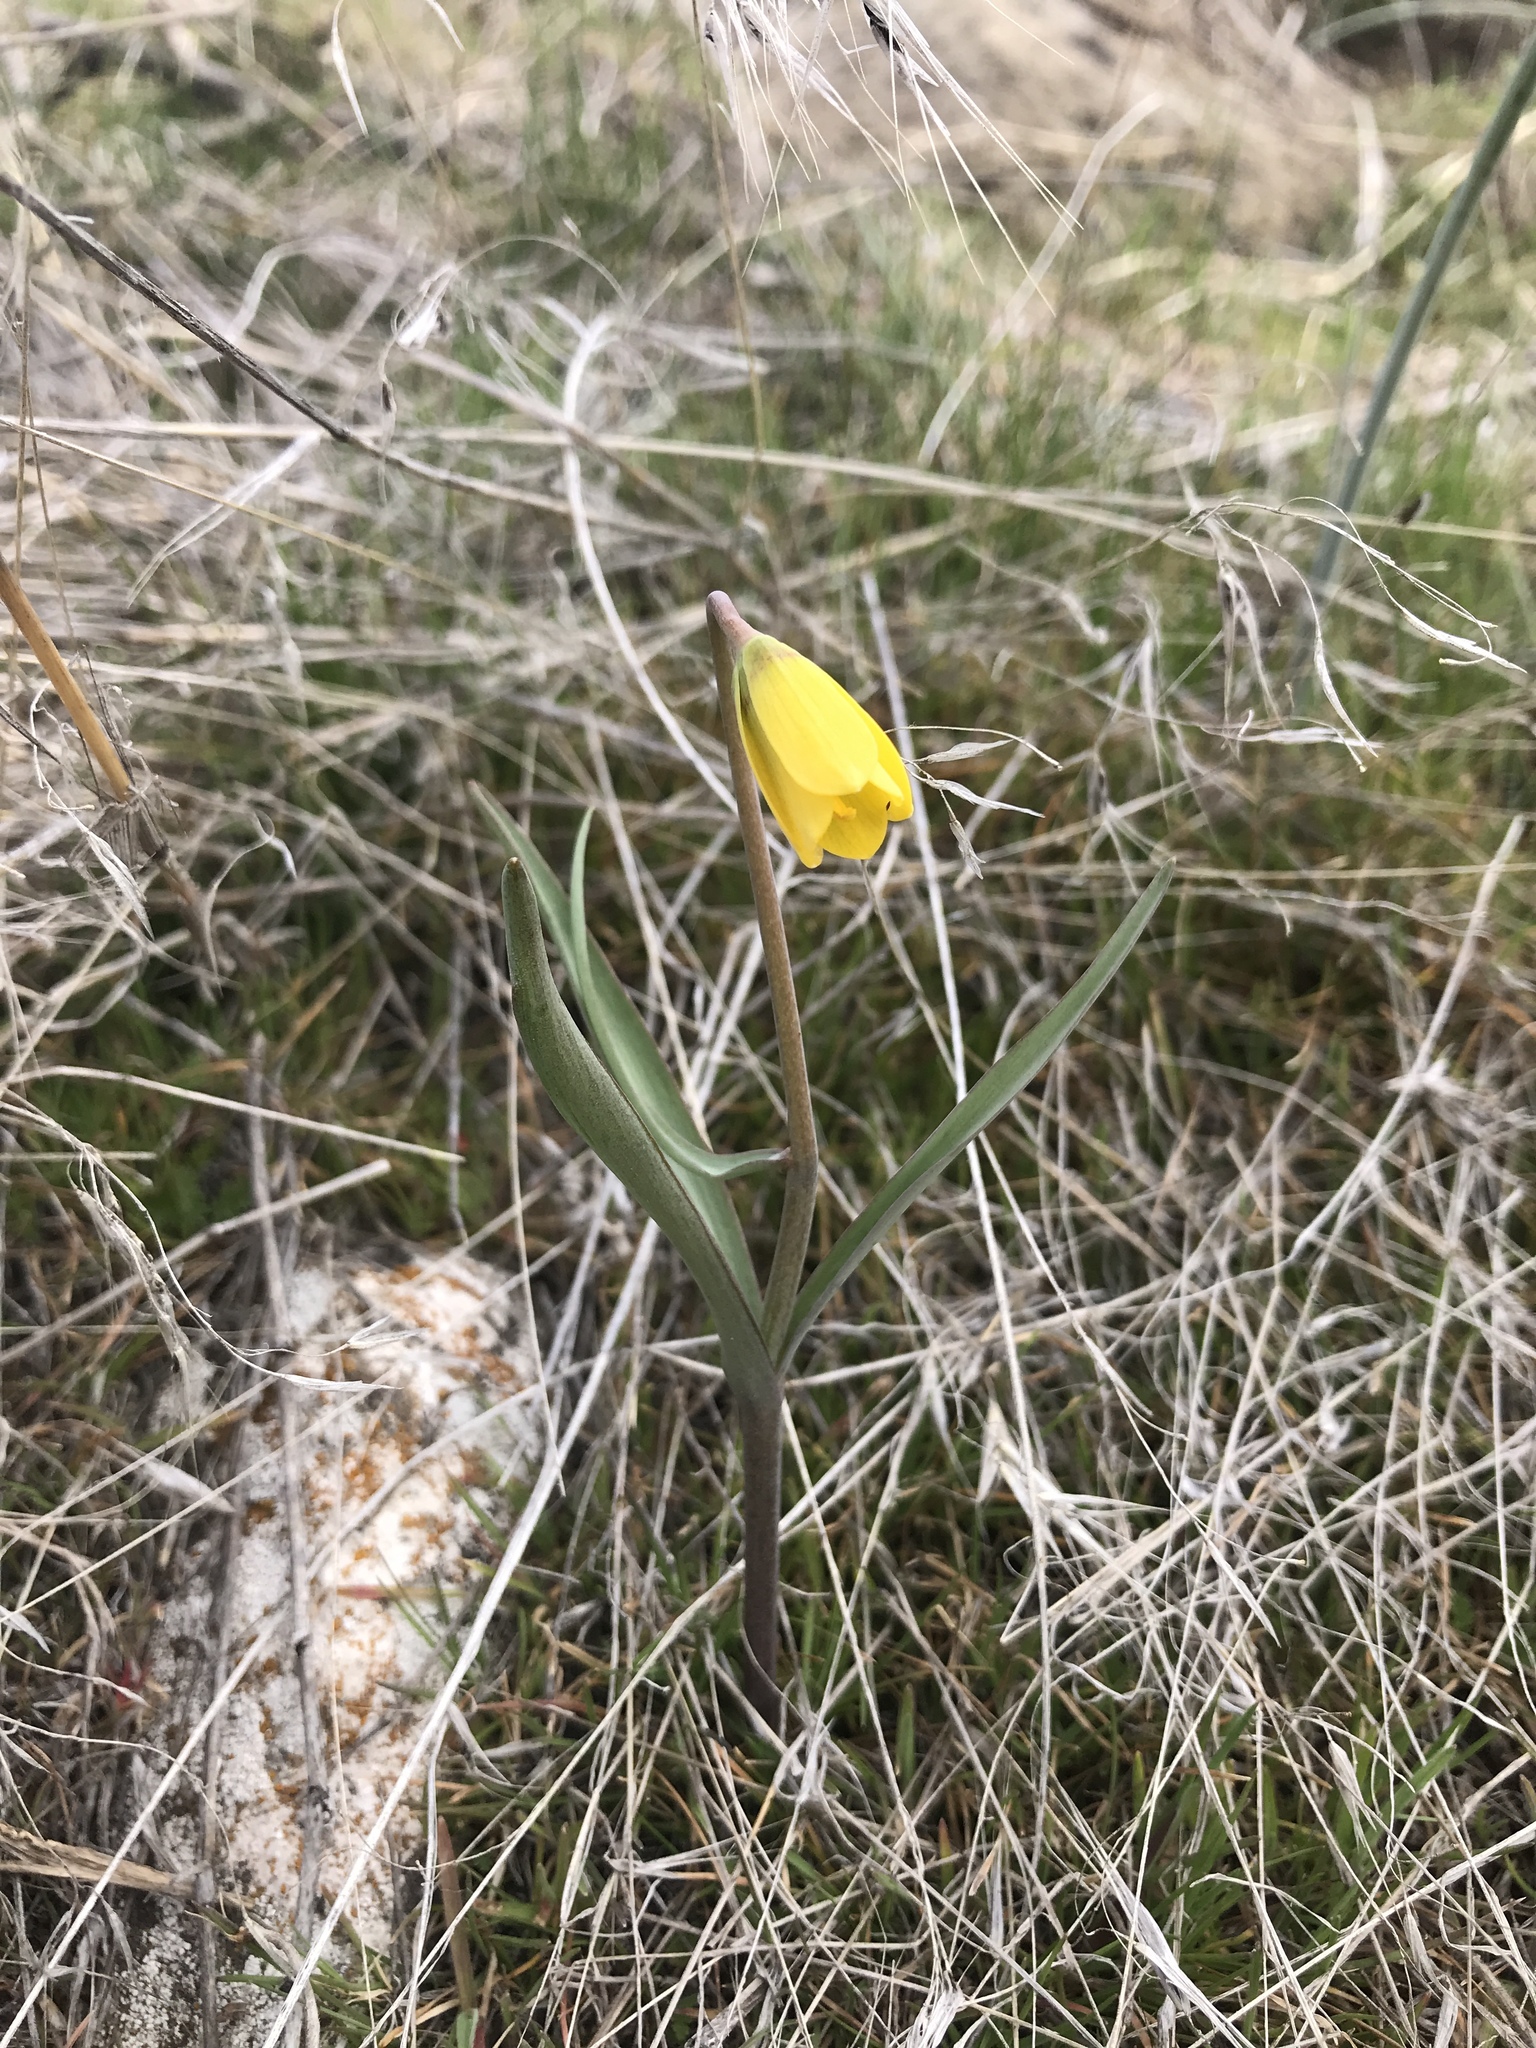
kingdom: Plantae
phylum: Tracheophyta
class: Liliopsida
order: Liliales
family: Liliaceae
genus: Fritillaria
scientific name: Fritillaria pudica
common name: Yellow fritillary
